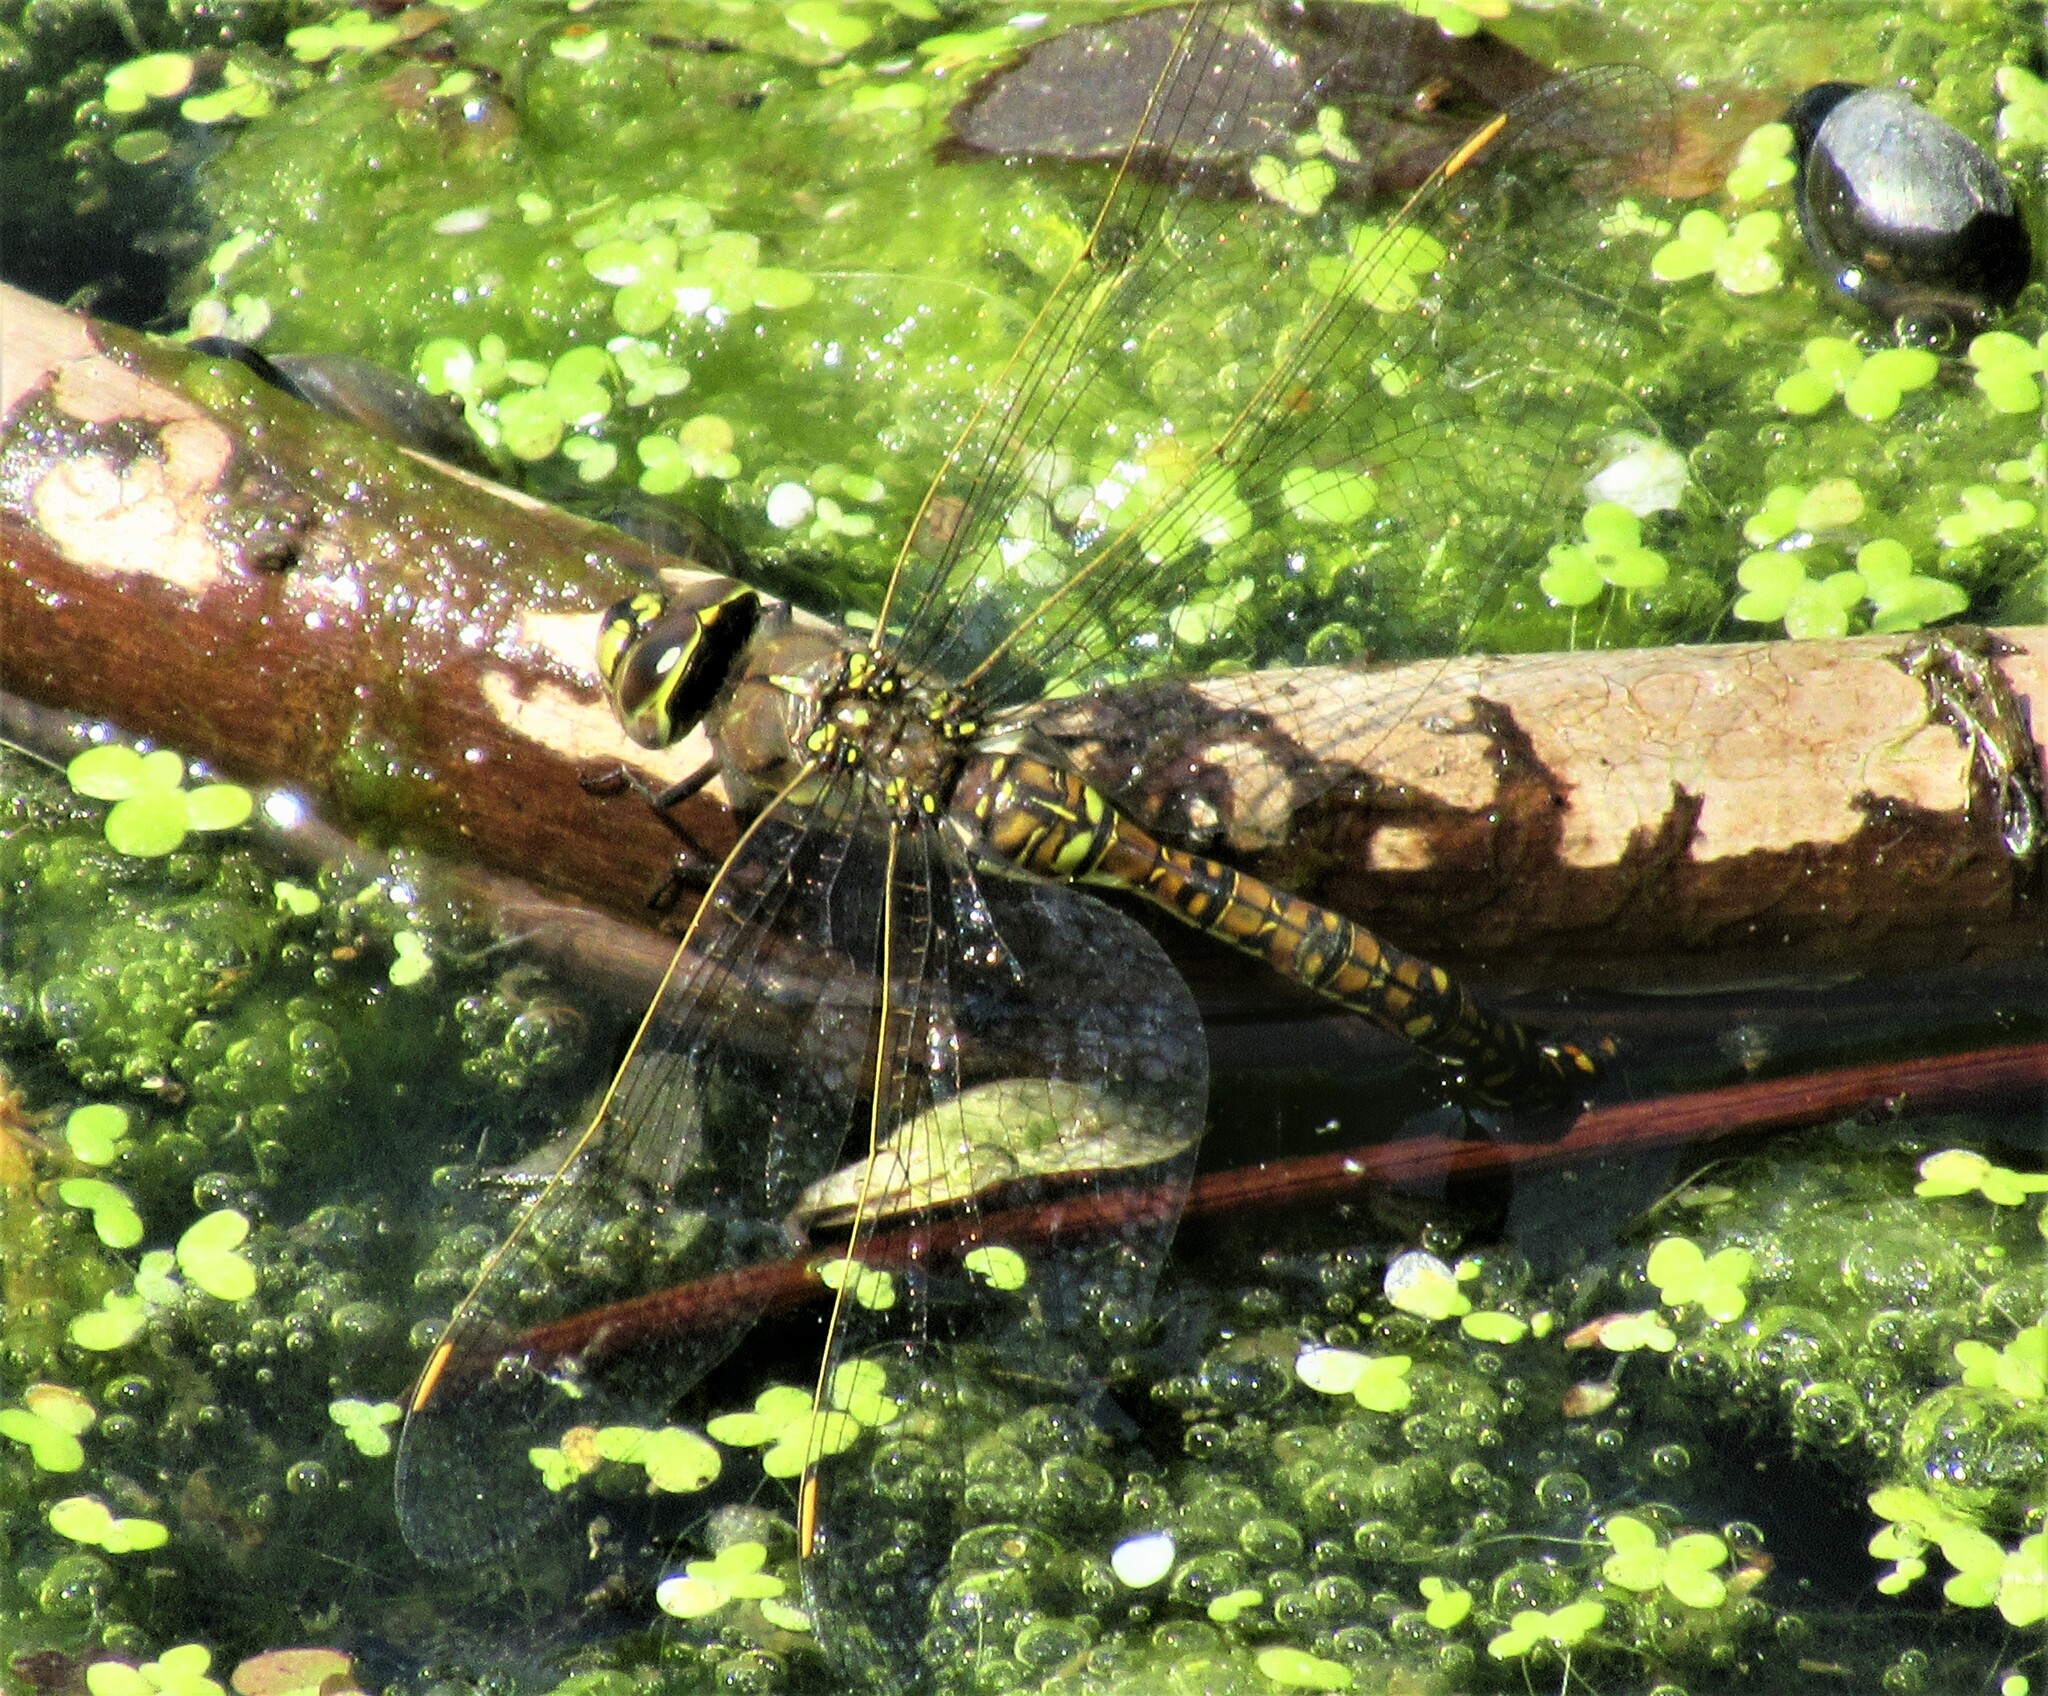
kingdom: Animalia
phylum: Arthropoda
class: Insecta
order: Odonata
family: Aeshnidae
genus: Rhionaeschna
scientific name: Rhionaeschna californica
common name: California darner
